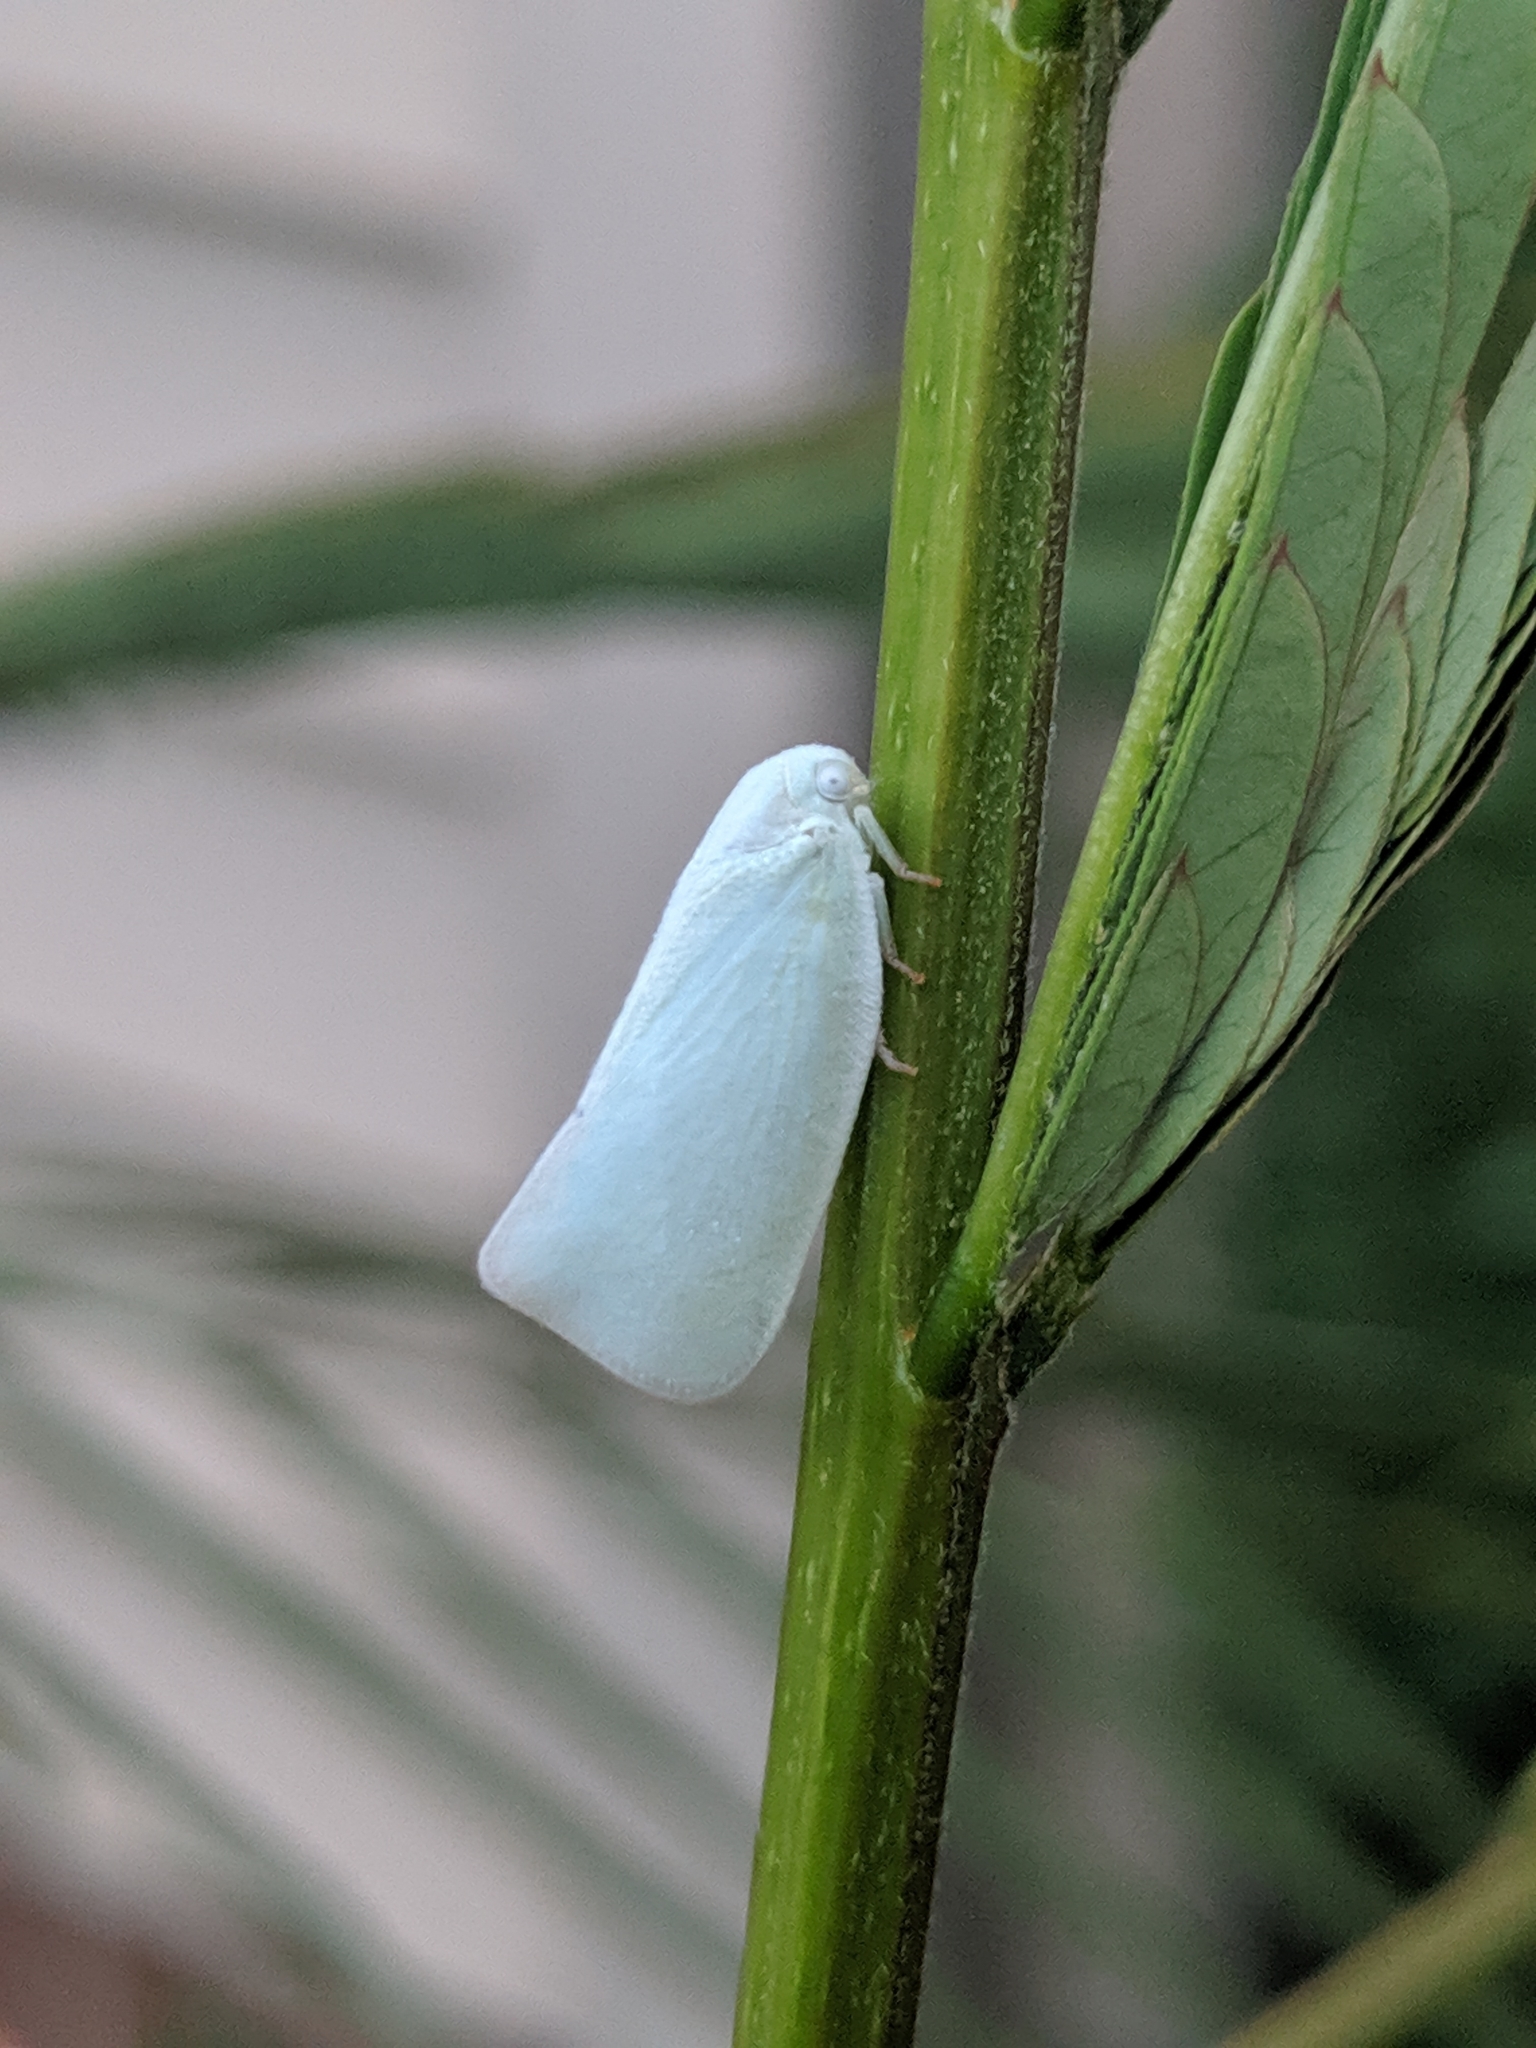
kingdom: Animalia
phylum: Arthropoda
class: Insecta
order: Hemiptera
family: Flatidae
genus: Flatormenis
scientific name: Flatormenis proxima
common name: Northern flatid planthopper
